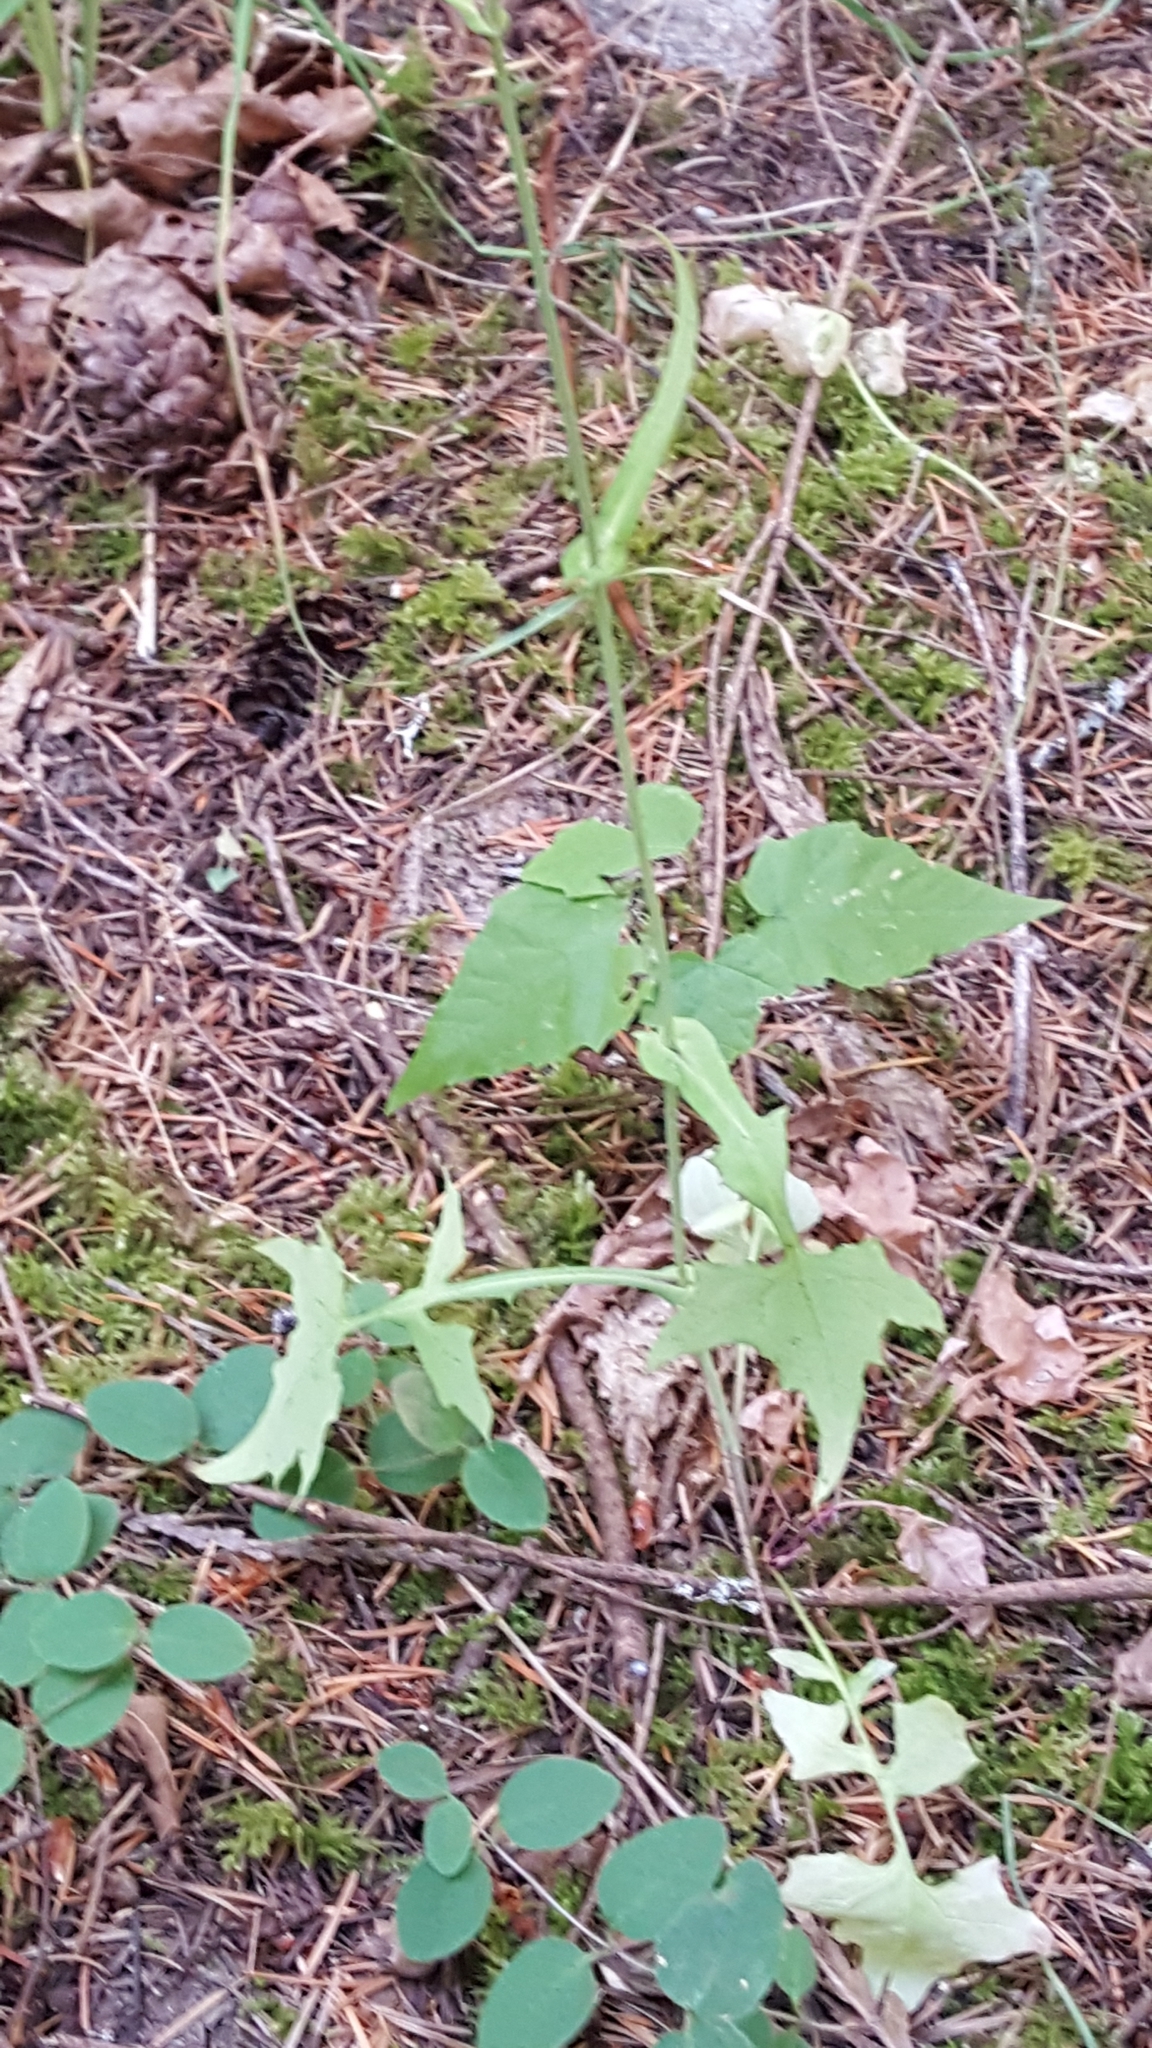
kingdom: Plantae
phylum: Tracheophyta
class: Magnoliopsida
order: Asterales
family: Asteraceae
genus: Mycelis
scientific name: Mycelis muralis
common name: Wall lettuce
